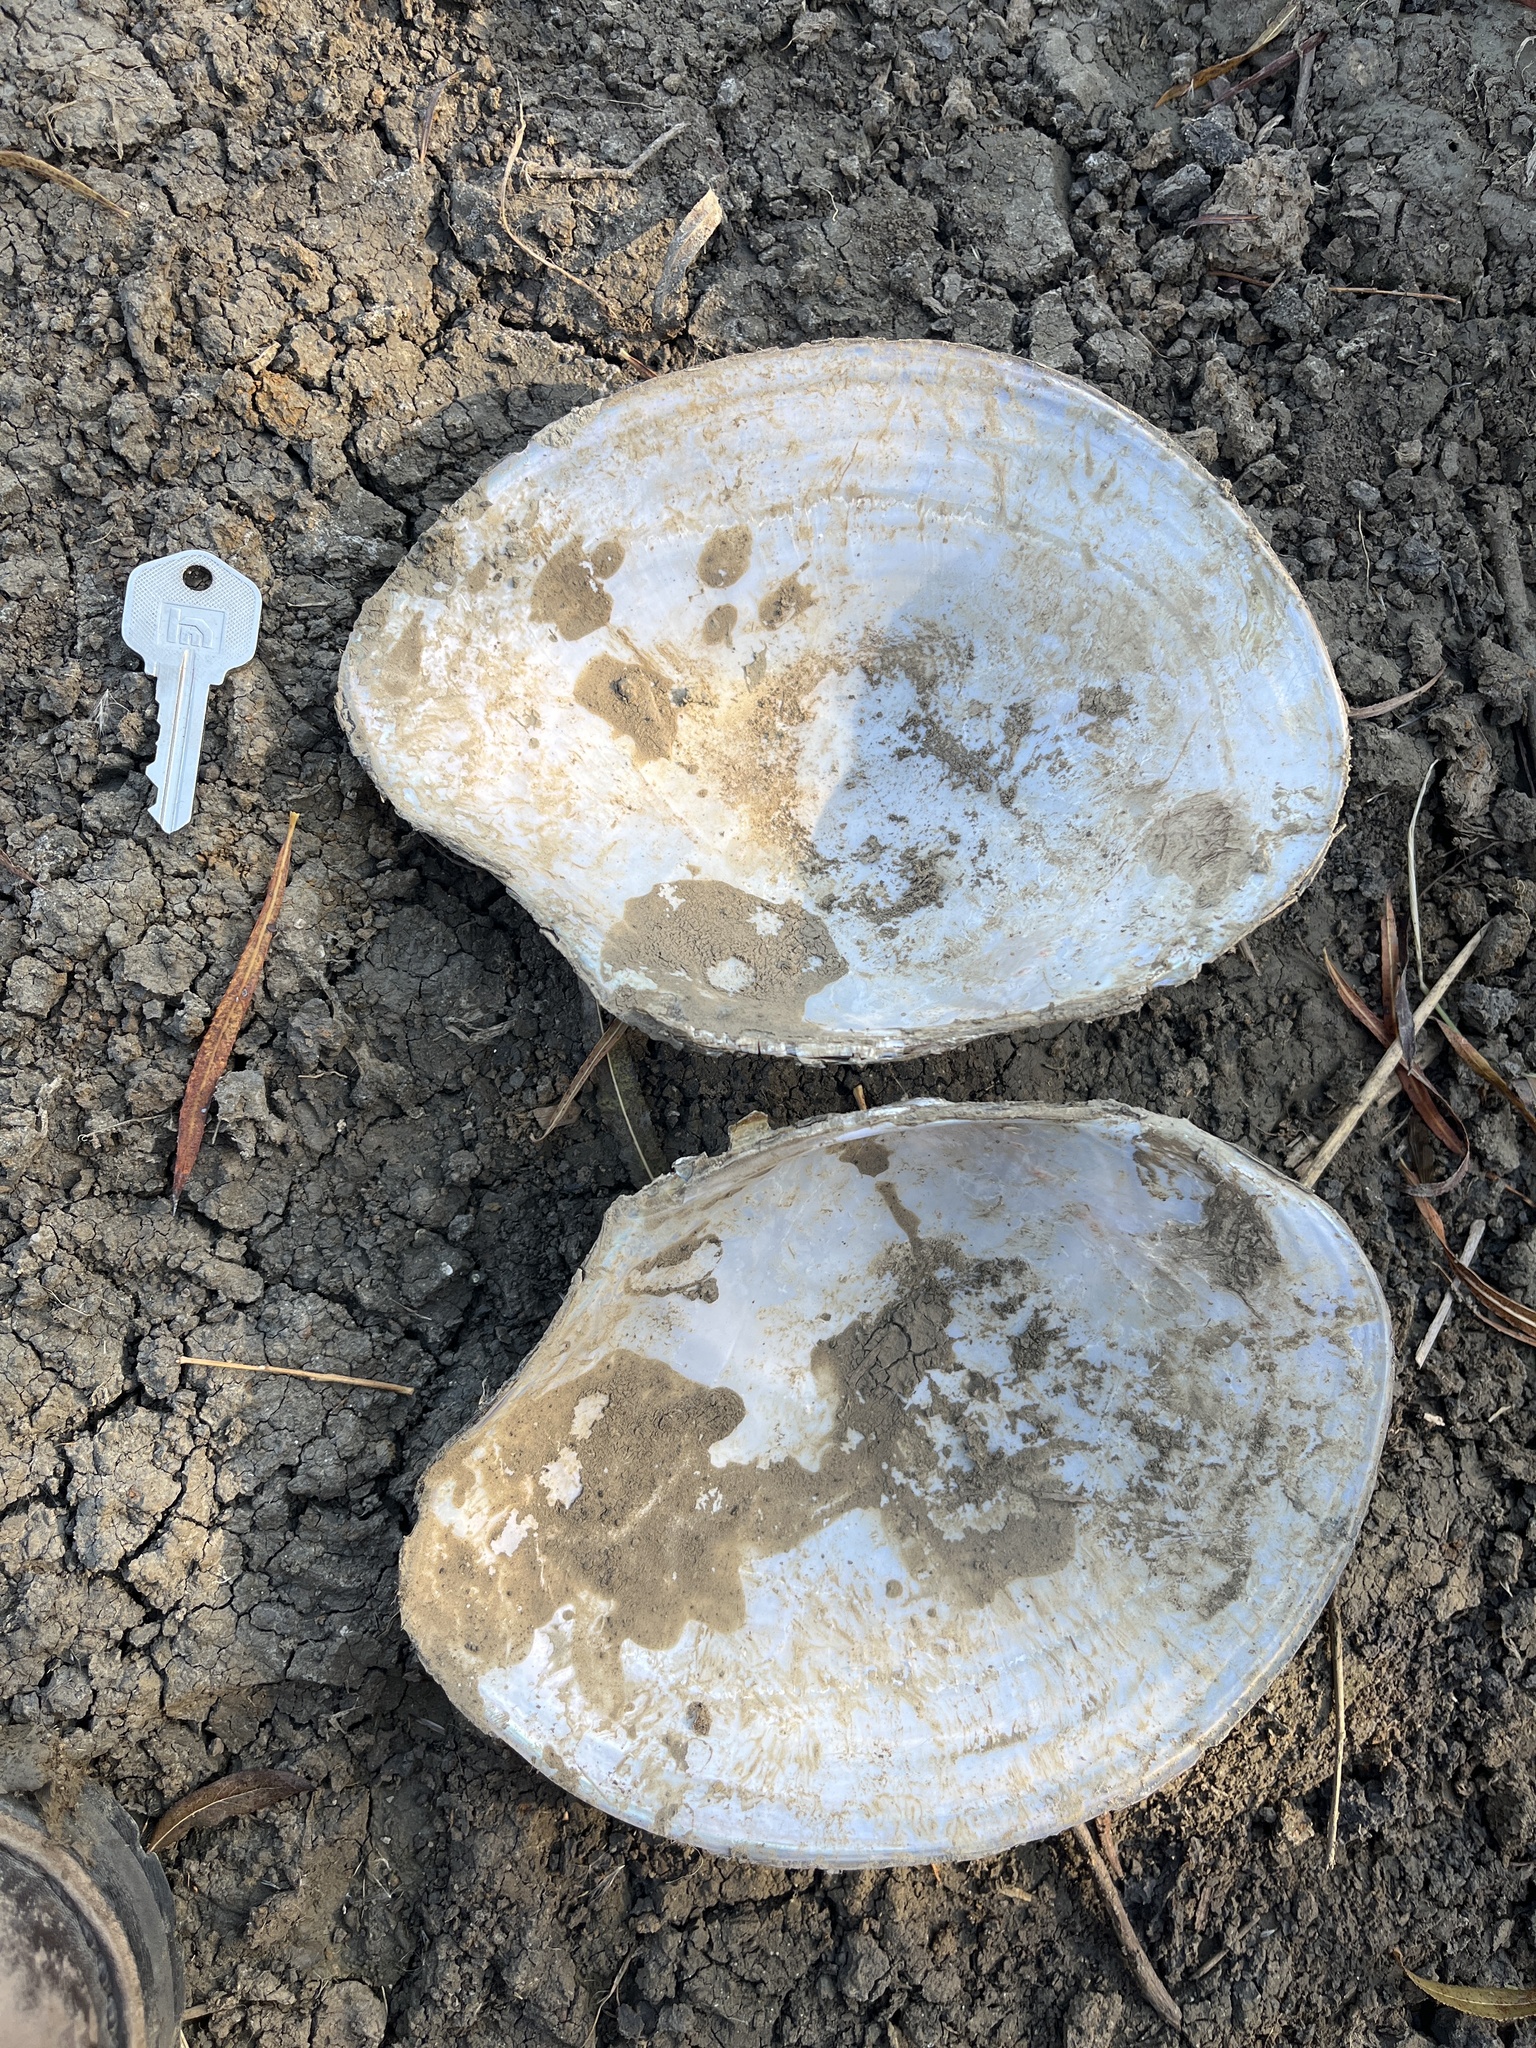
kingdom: Animalia
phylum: Mollusca
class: Bivalvia
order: Unionida
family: Unionidae
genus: Utterbackiana
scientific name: Utterbackiana suborbiculata
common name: Flat floater
